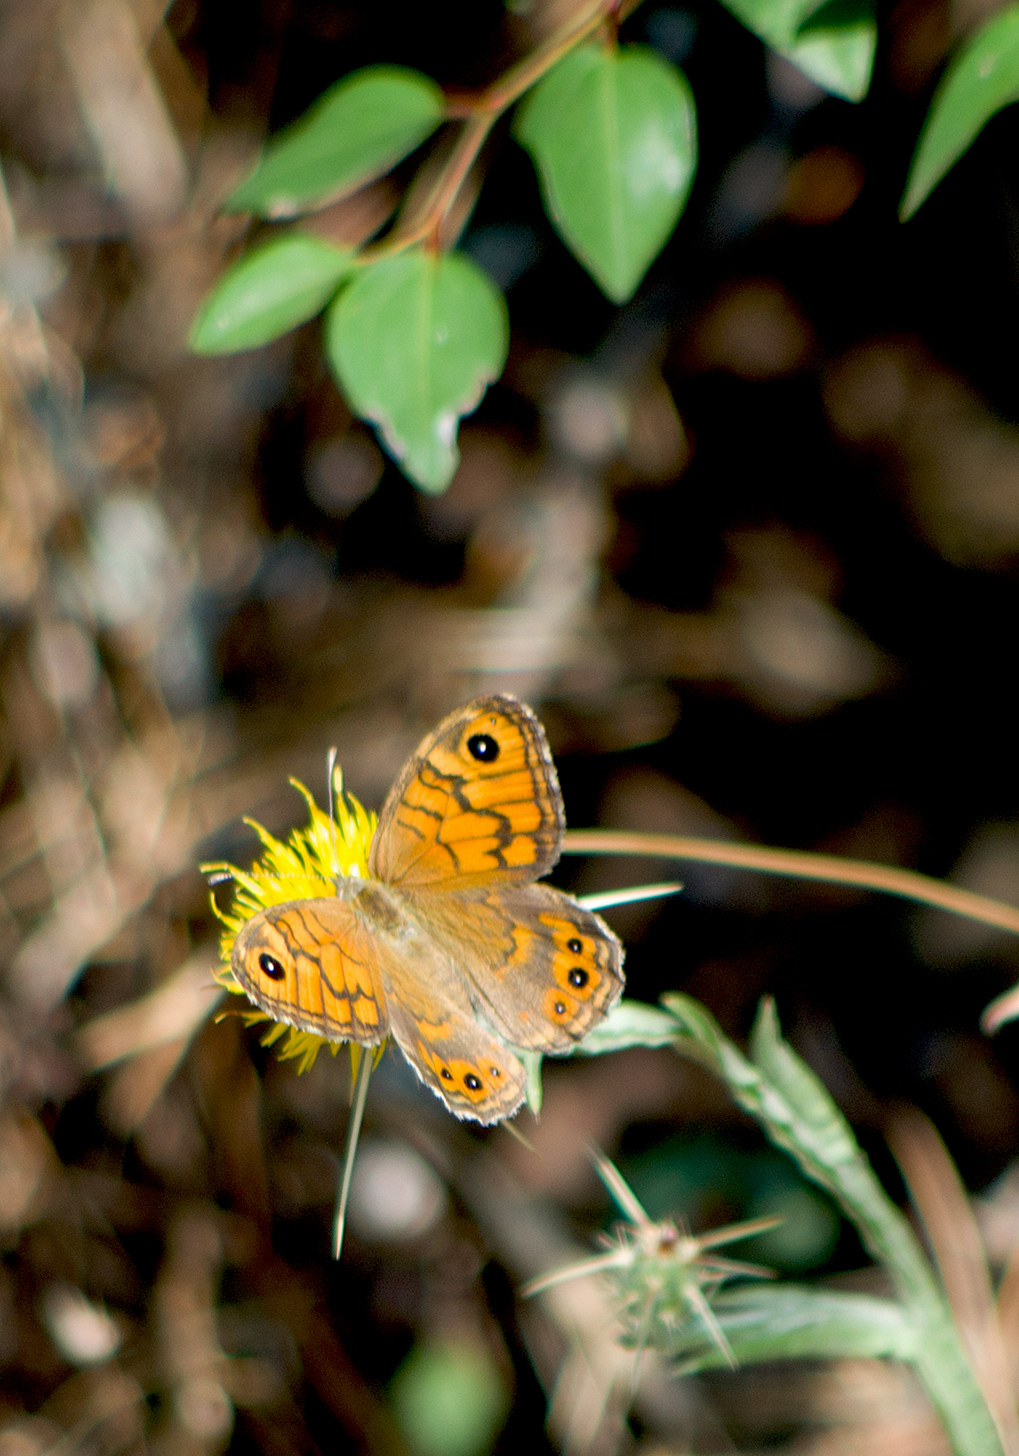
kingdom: Animalia
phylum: Arthropoda
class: Insecta
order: Lepidoptera
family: Nymphalidae
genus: Pararge
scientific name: Pararge Lasiommata megera
